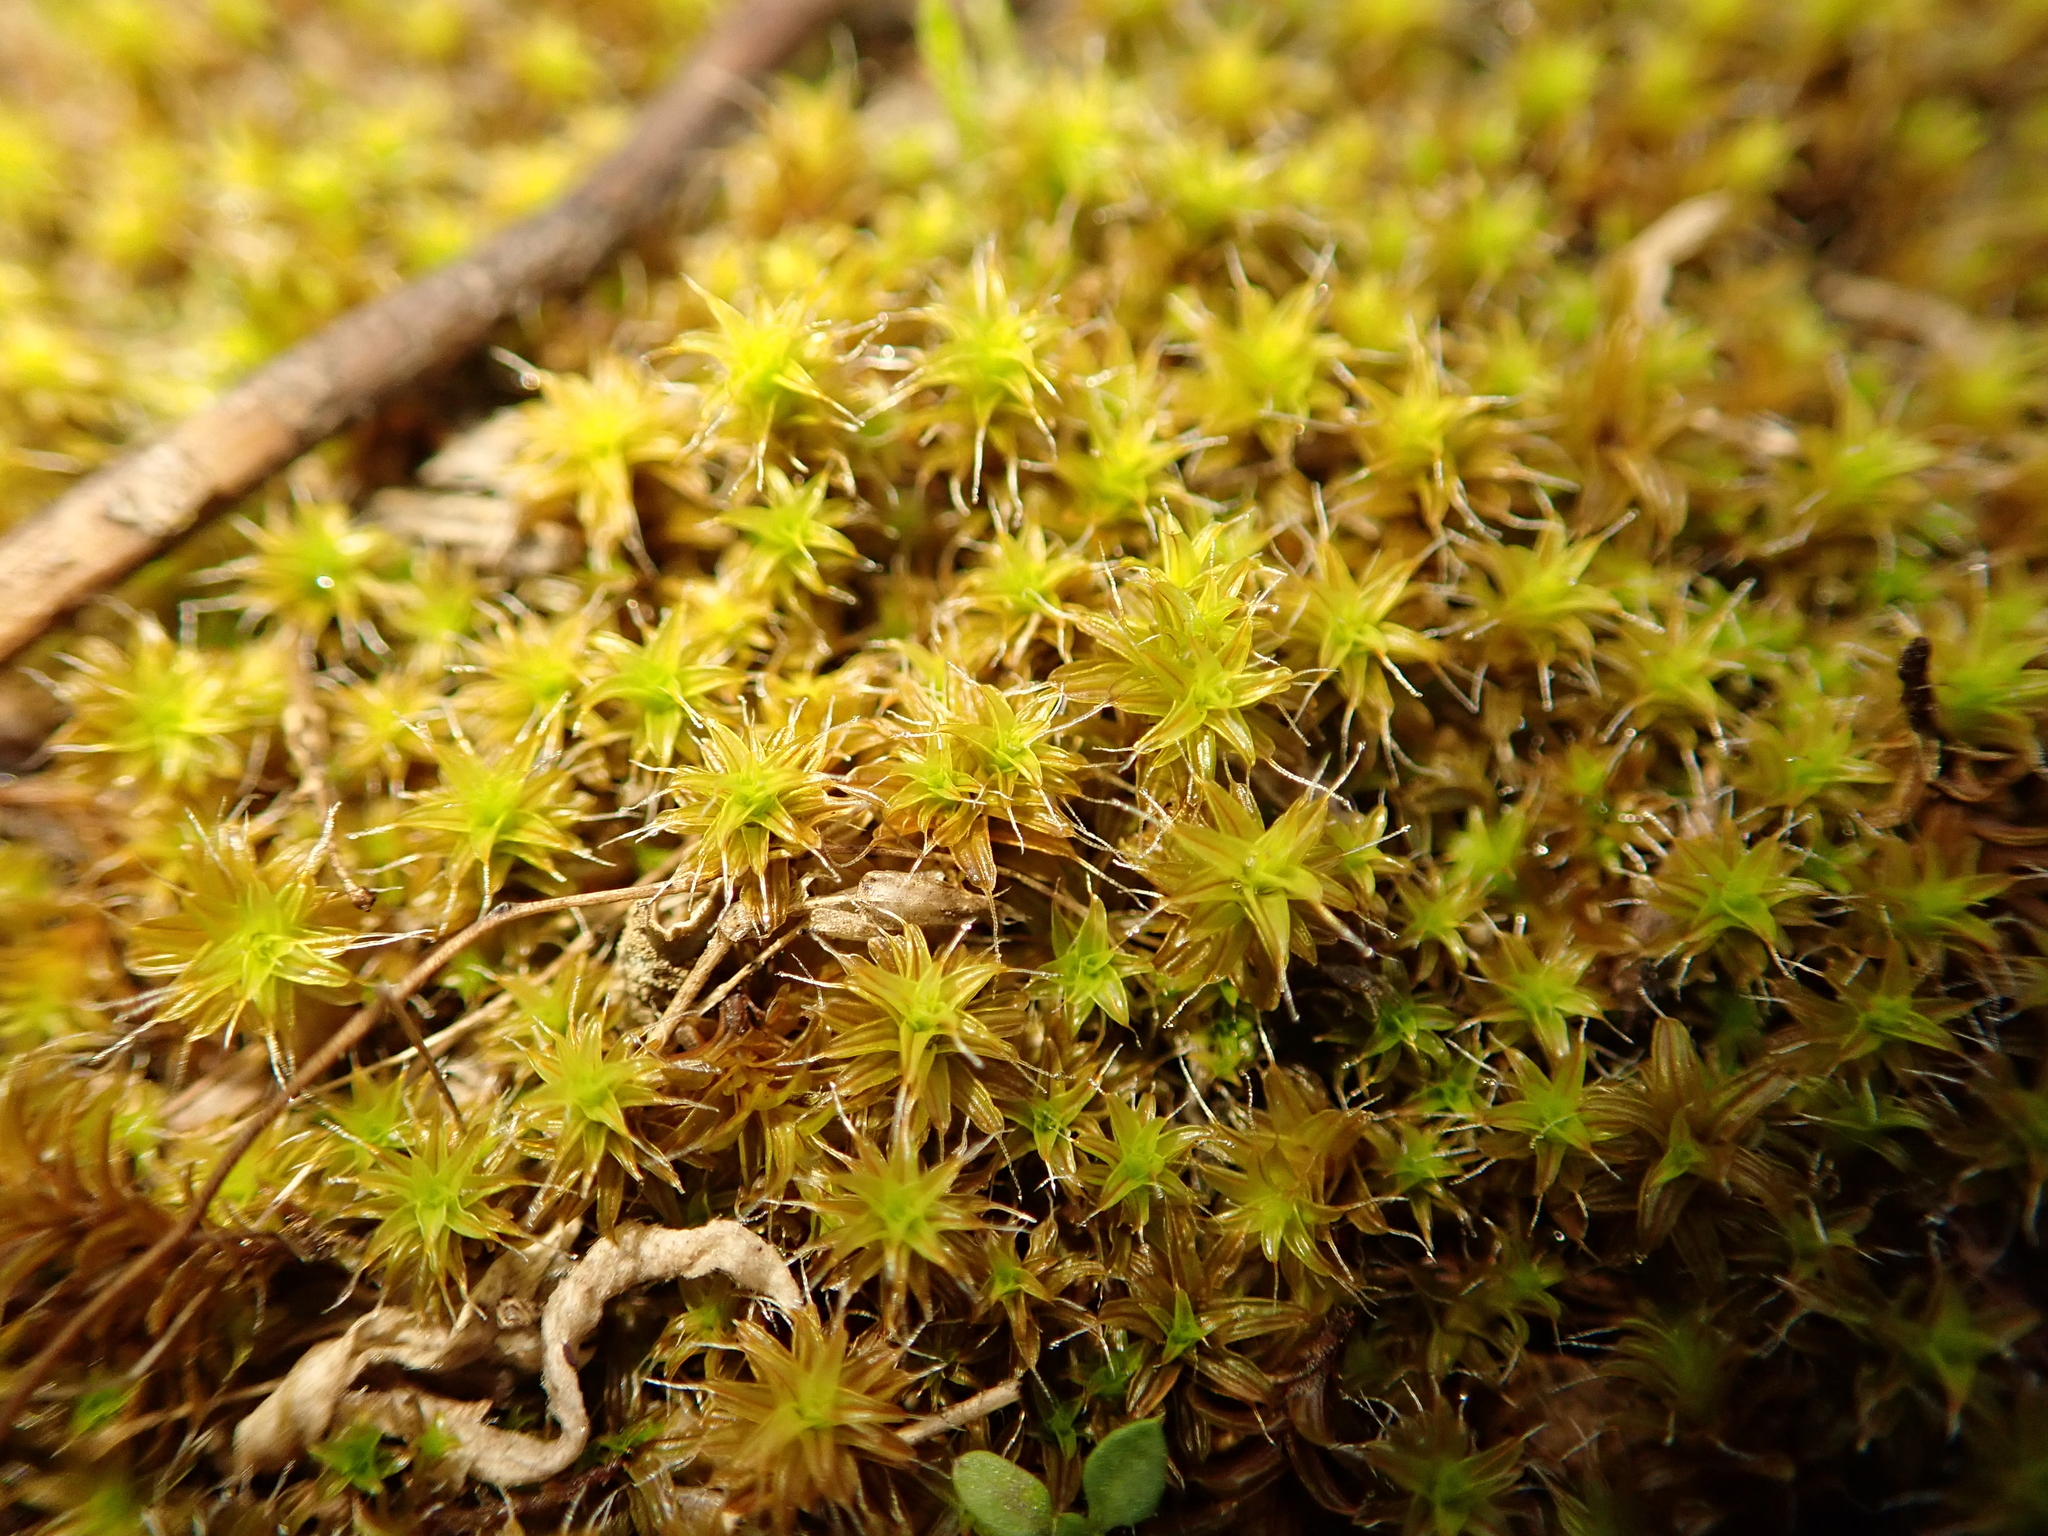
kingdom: Plantae
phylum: Bryophyta
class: Bryopsida
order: Pottiales
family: Pottiaceae
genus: Syntrichia
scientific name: Syntrichia ruralis
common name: Sidewalk screw moss
